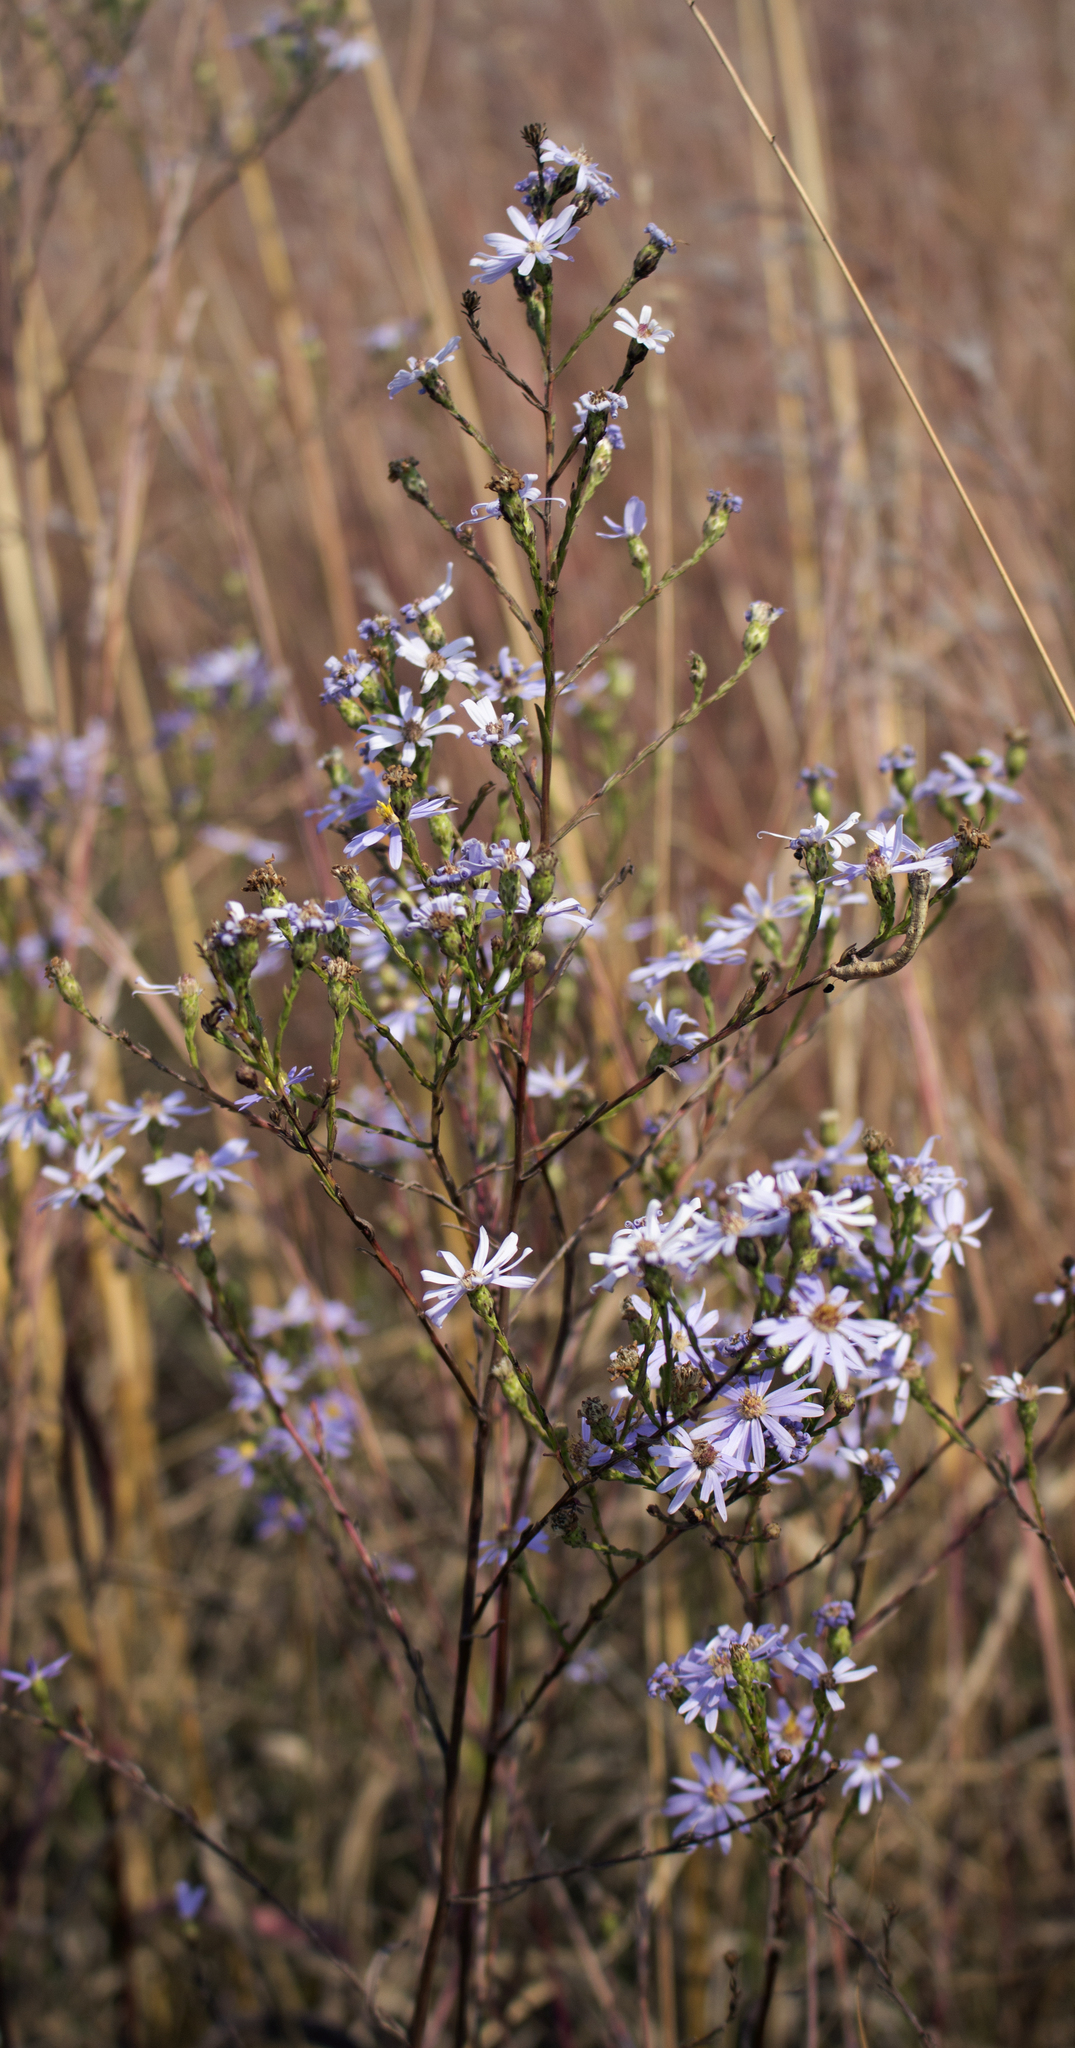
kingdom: Plantae
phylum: Tracheophyta
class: Magnoliopsida
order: Asterales
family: Asteraceae
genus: Symphyotrichum
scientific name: Symphyotrichum oolentangiense
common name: Azure aster
